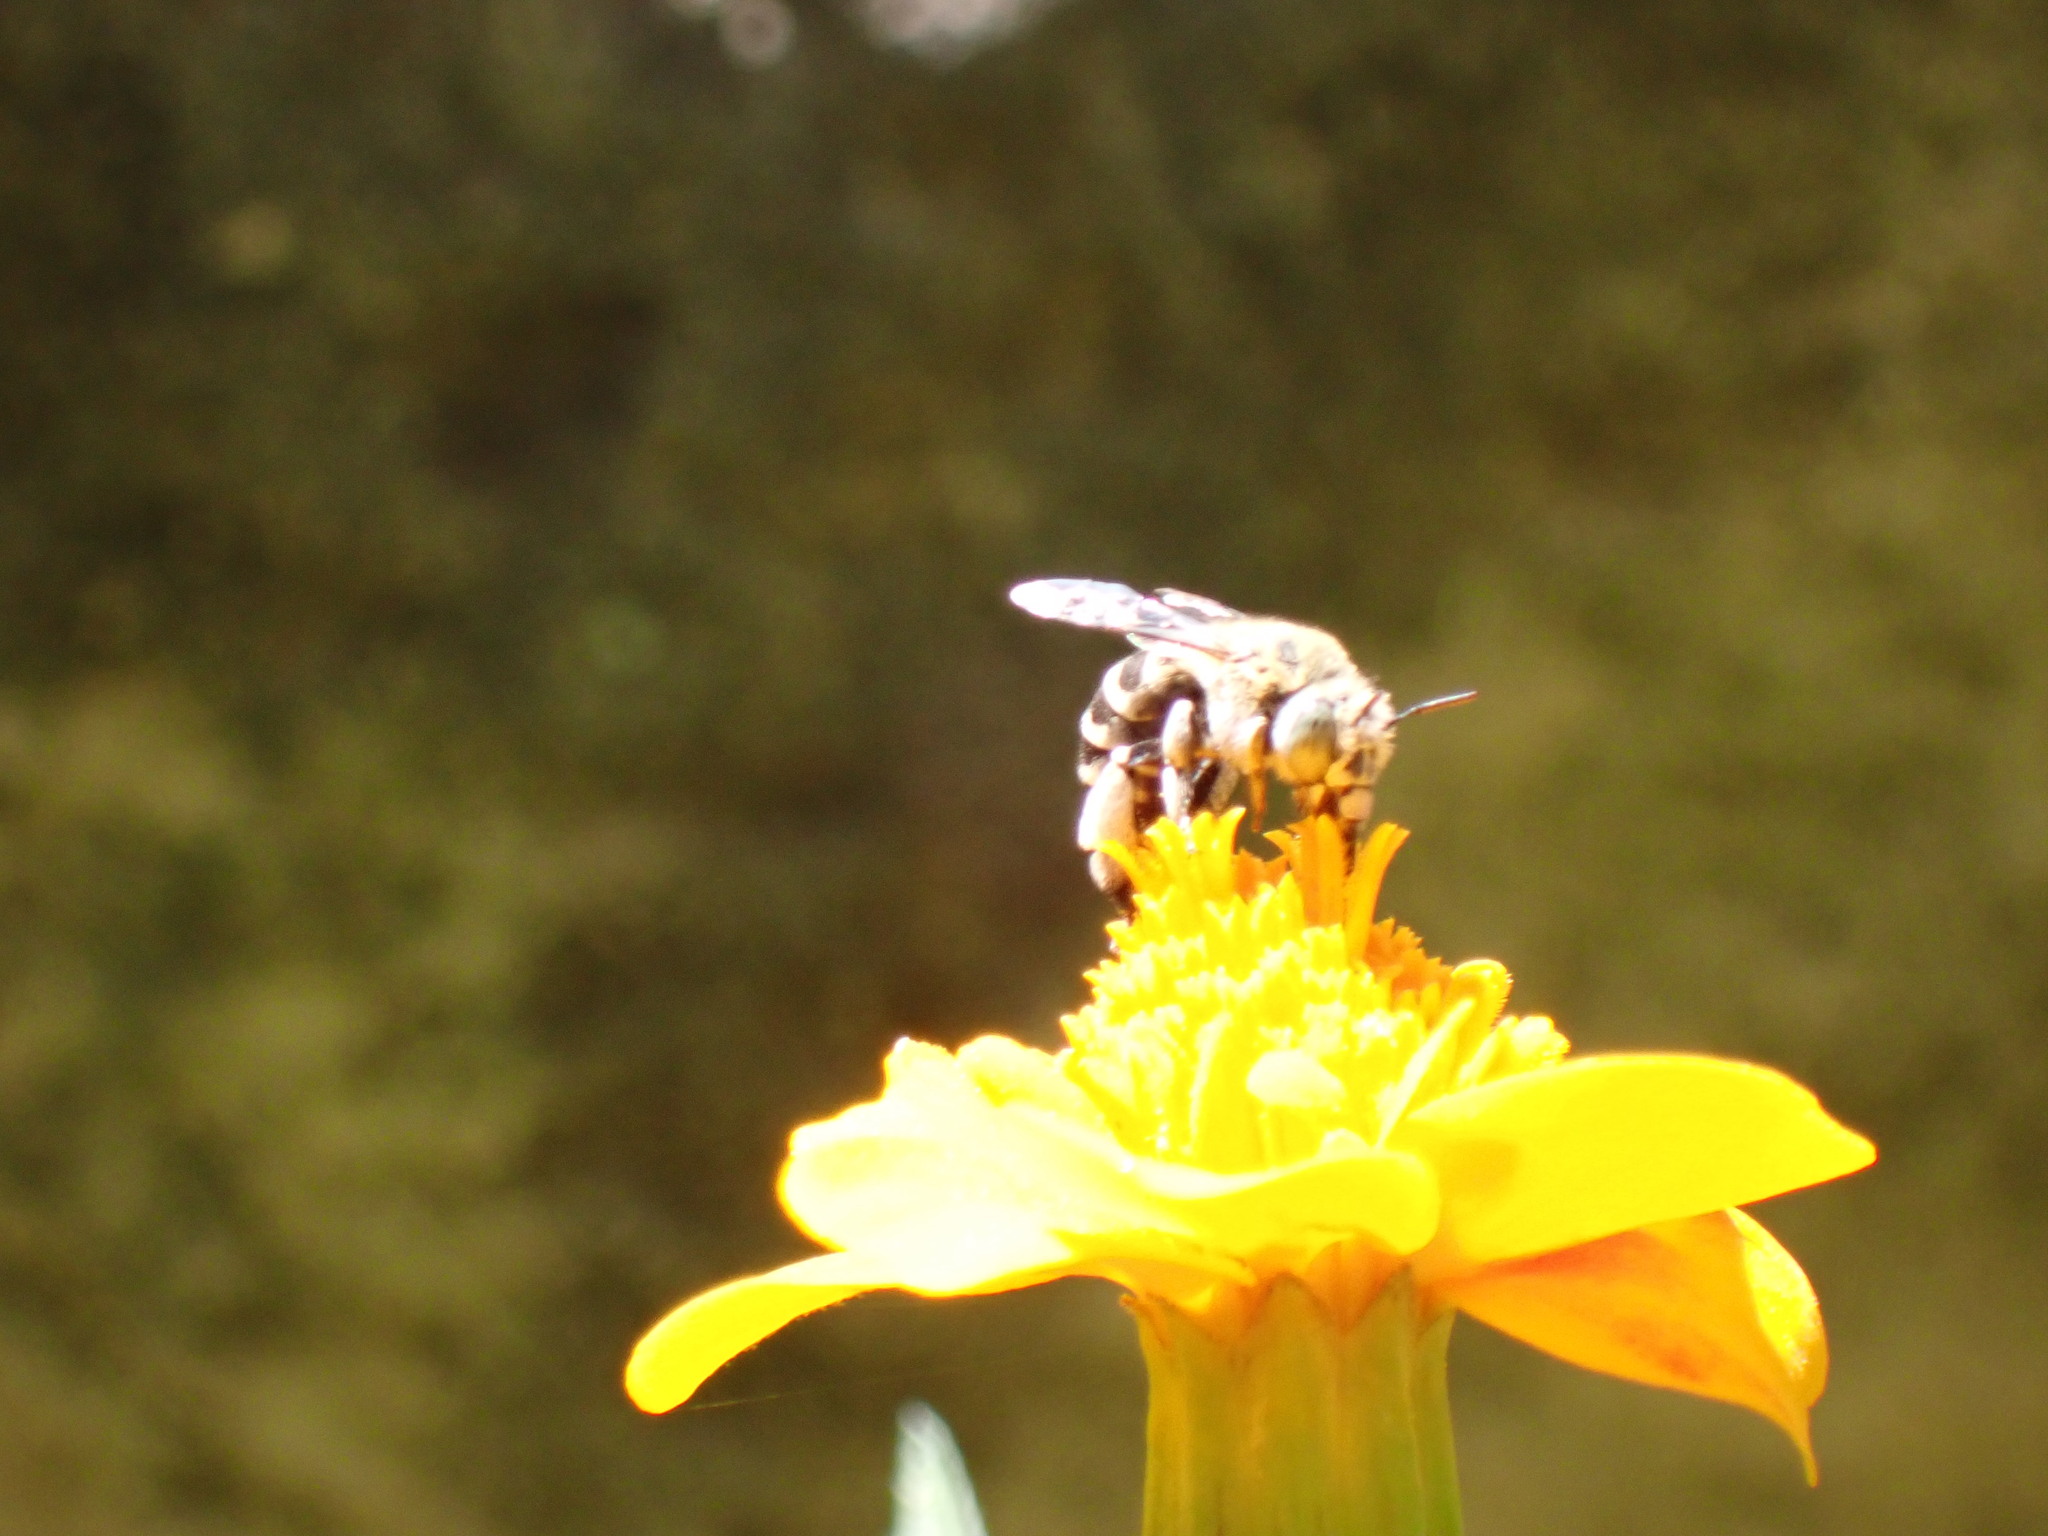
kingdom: Animalia
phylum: Arthropoda
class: Insecta
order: Hymenoptera
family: Apidae
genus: Amegilla
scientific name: Amegilla albigena
